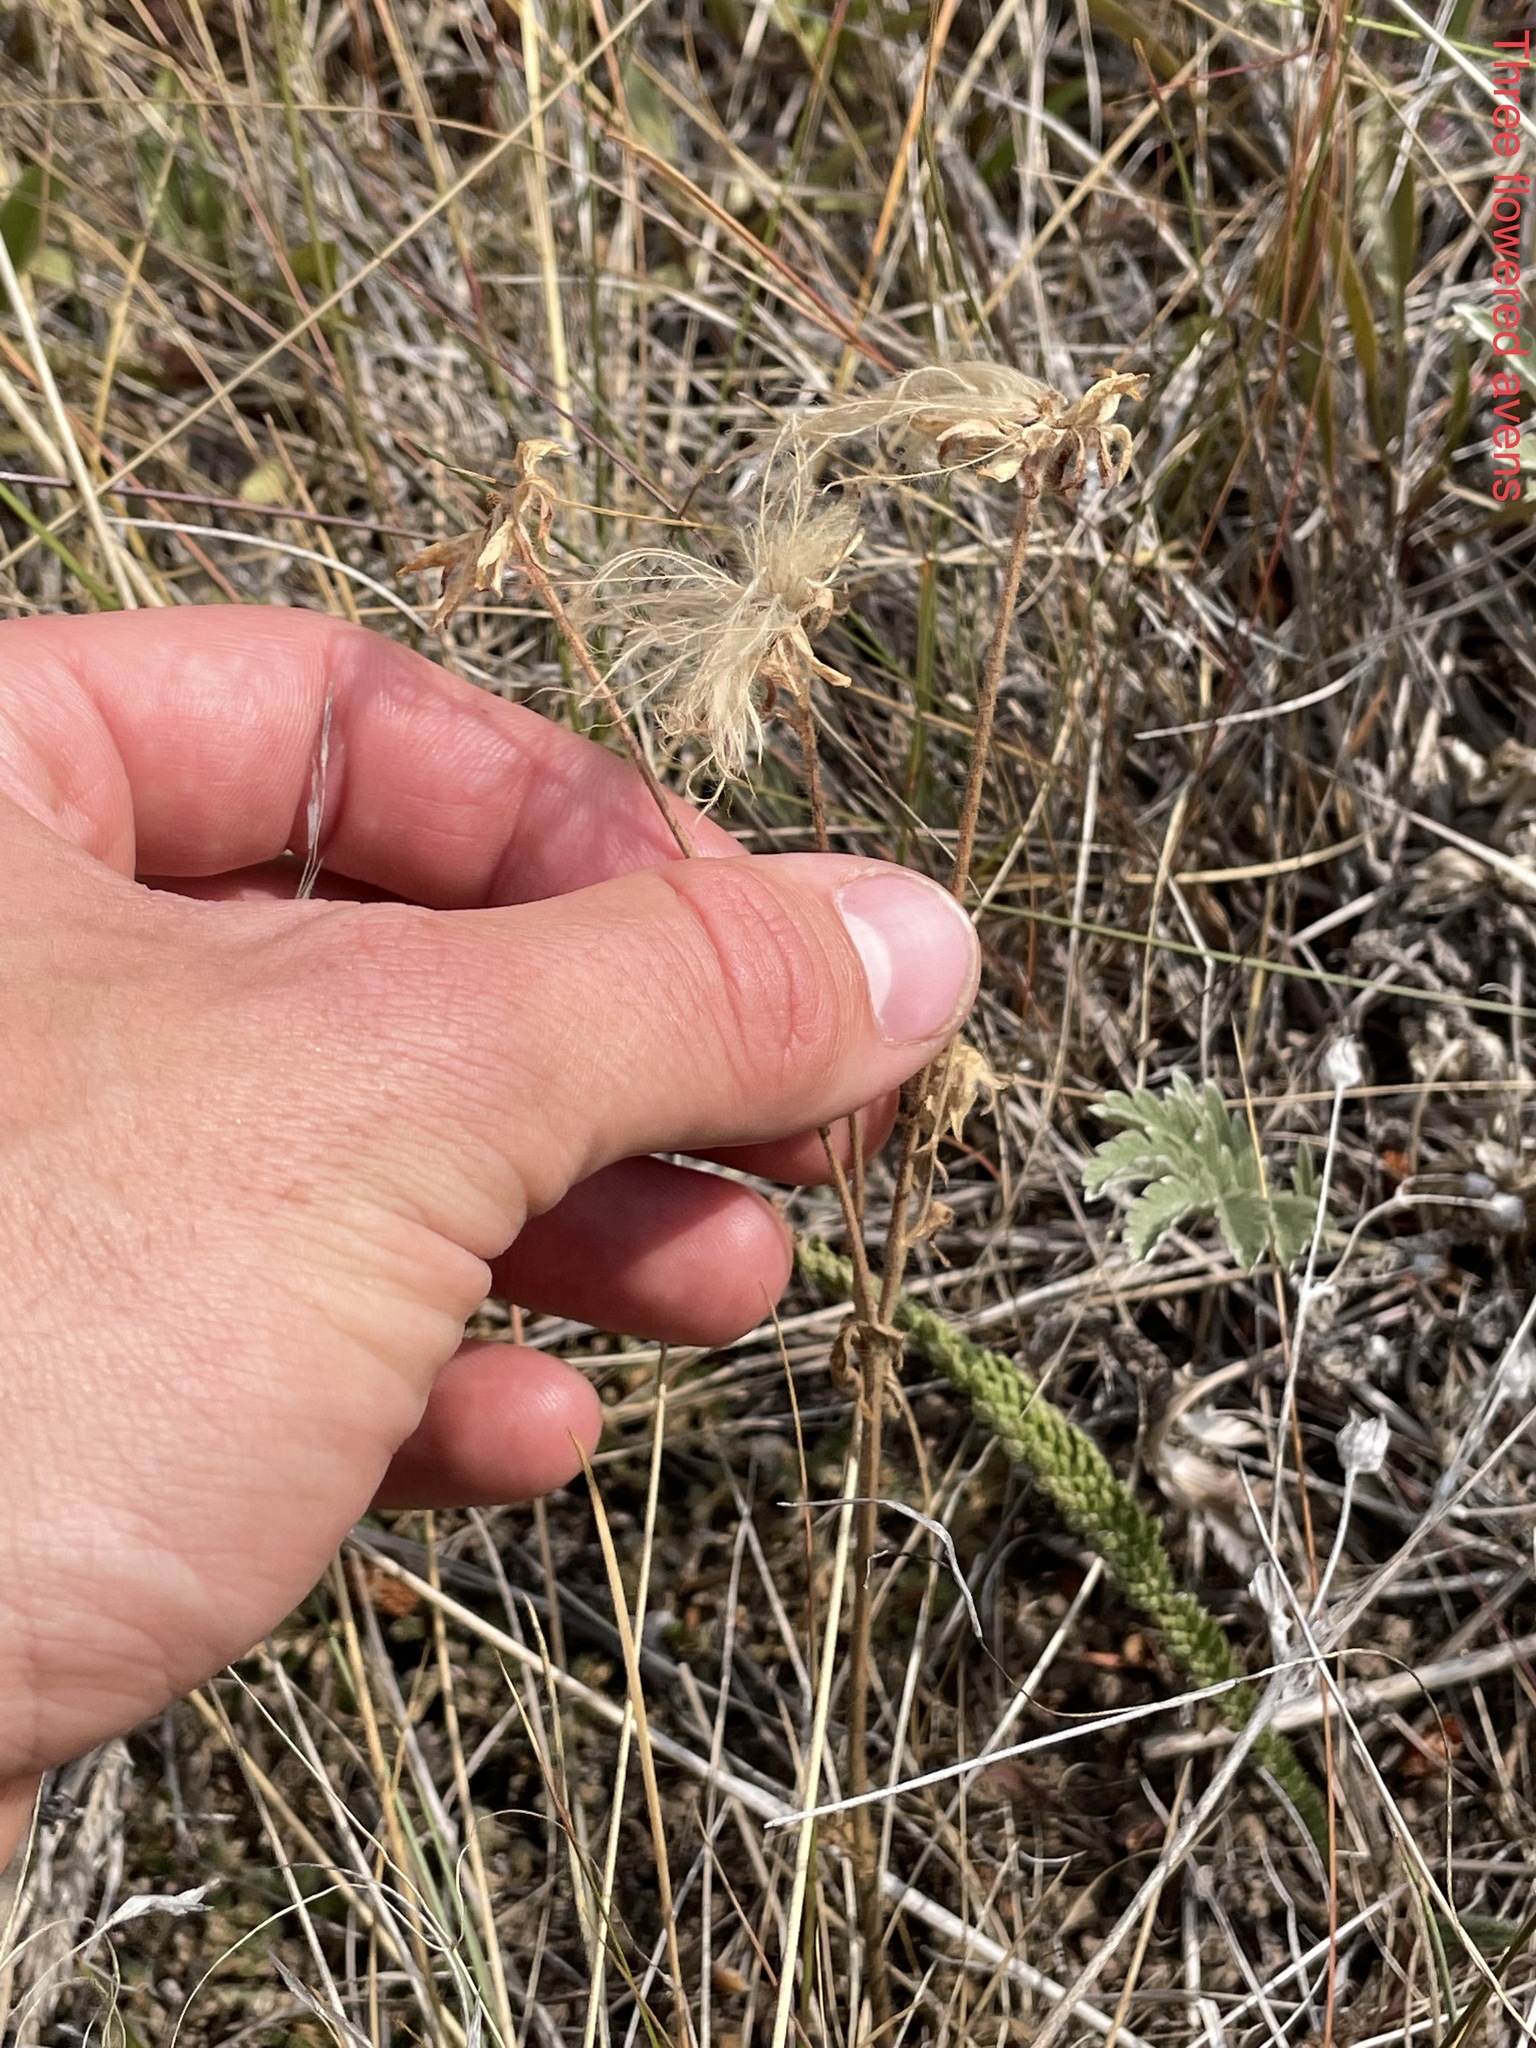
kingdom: Plantae
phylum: Tracheophyta
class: Magnoliopsida
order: Rosales
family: Rosaceae
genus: Geum
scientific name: Geum triflorum
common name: Old man's whiskers
